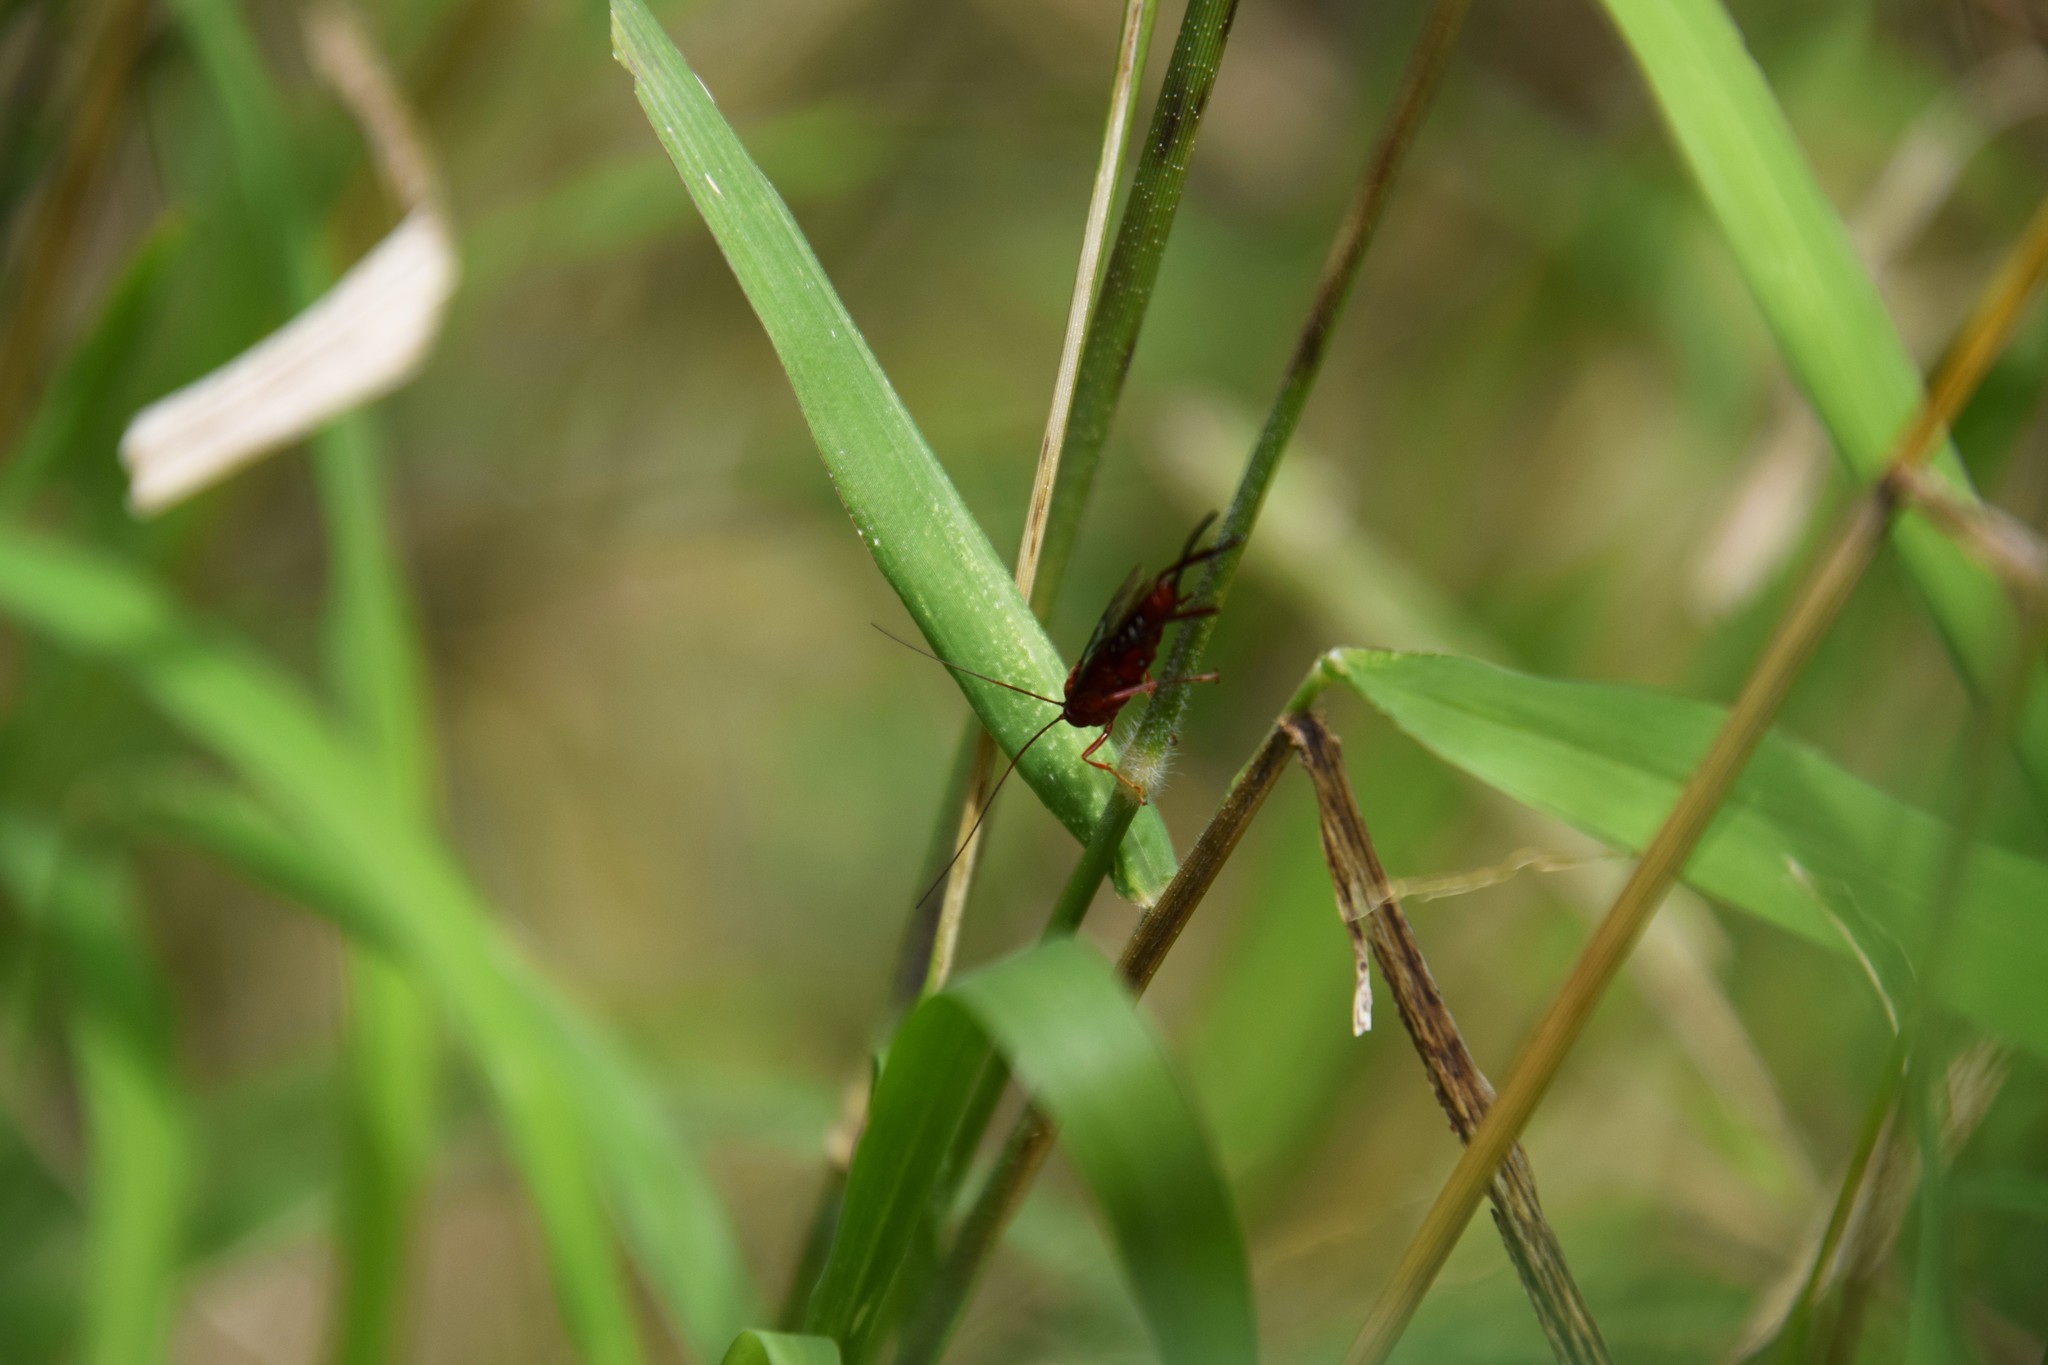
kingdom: Animalia
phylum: Arthropoda
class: Insecta
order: Hymenoptera
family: Ichneumonidae
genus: Lissopimpla
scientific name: Lissopimpla excelsa
